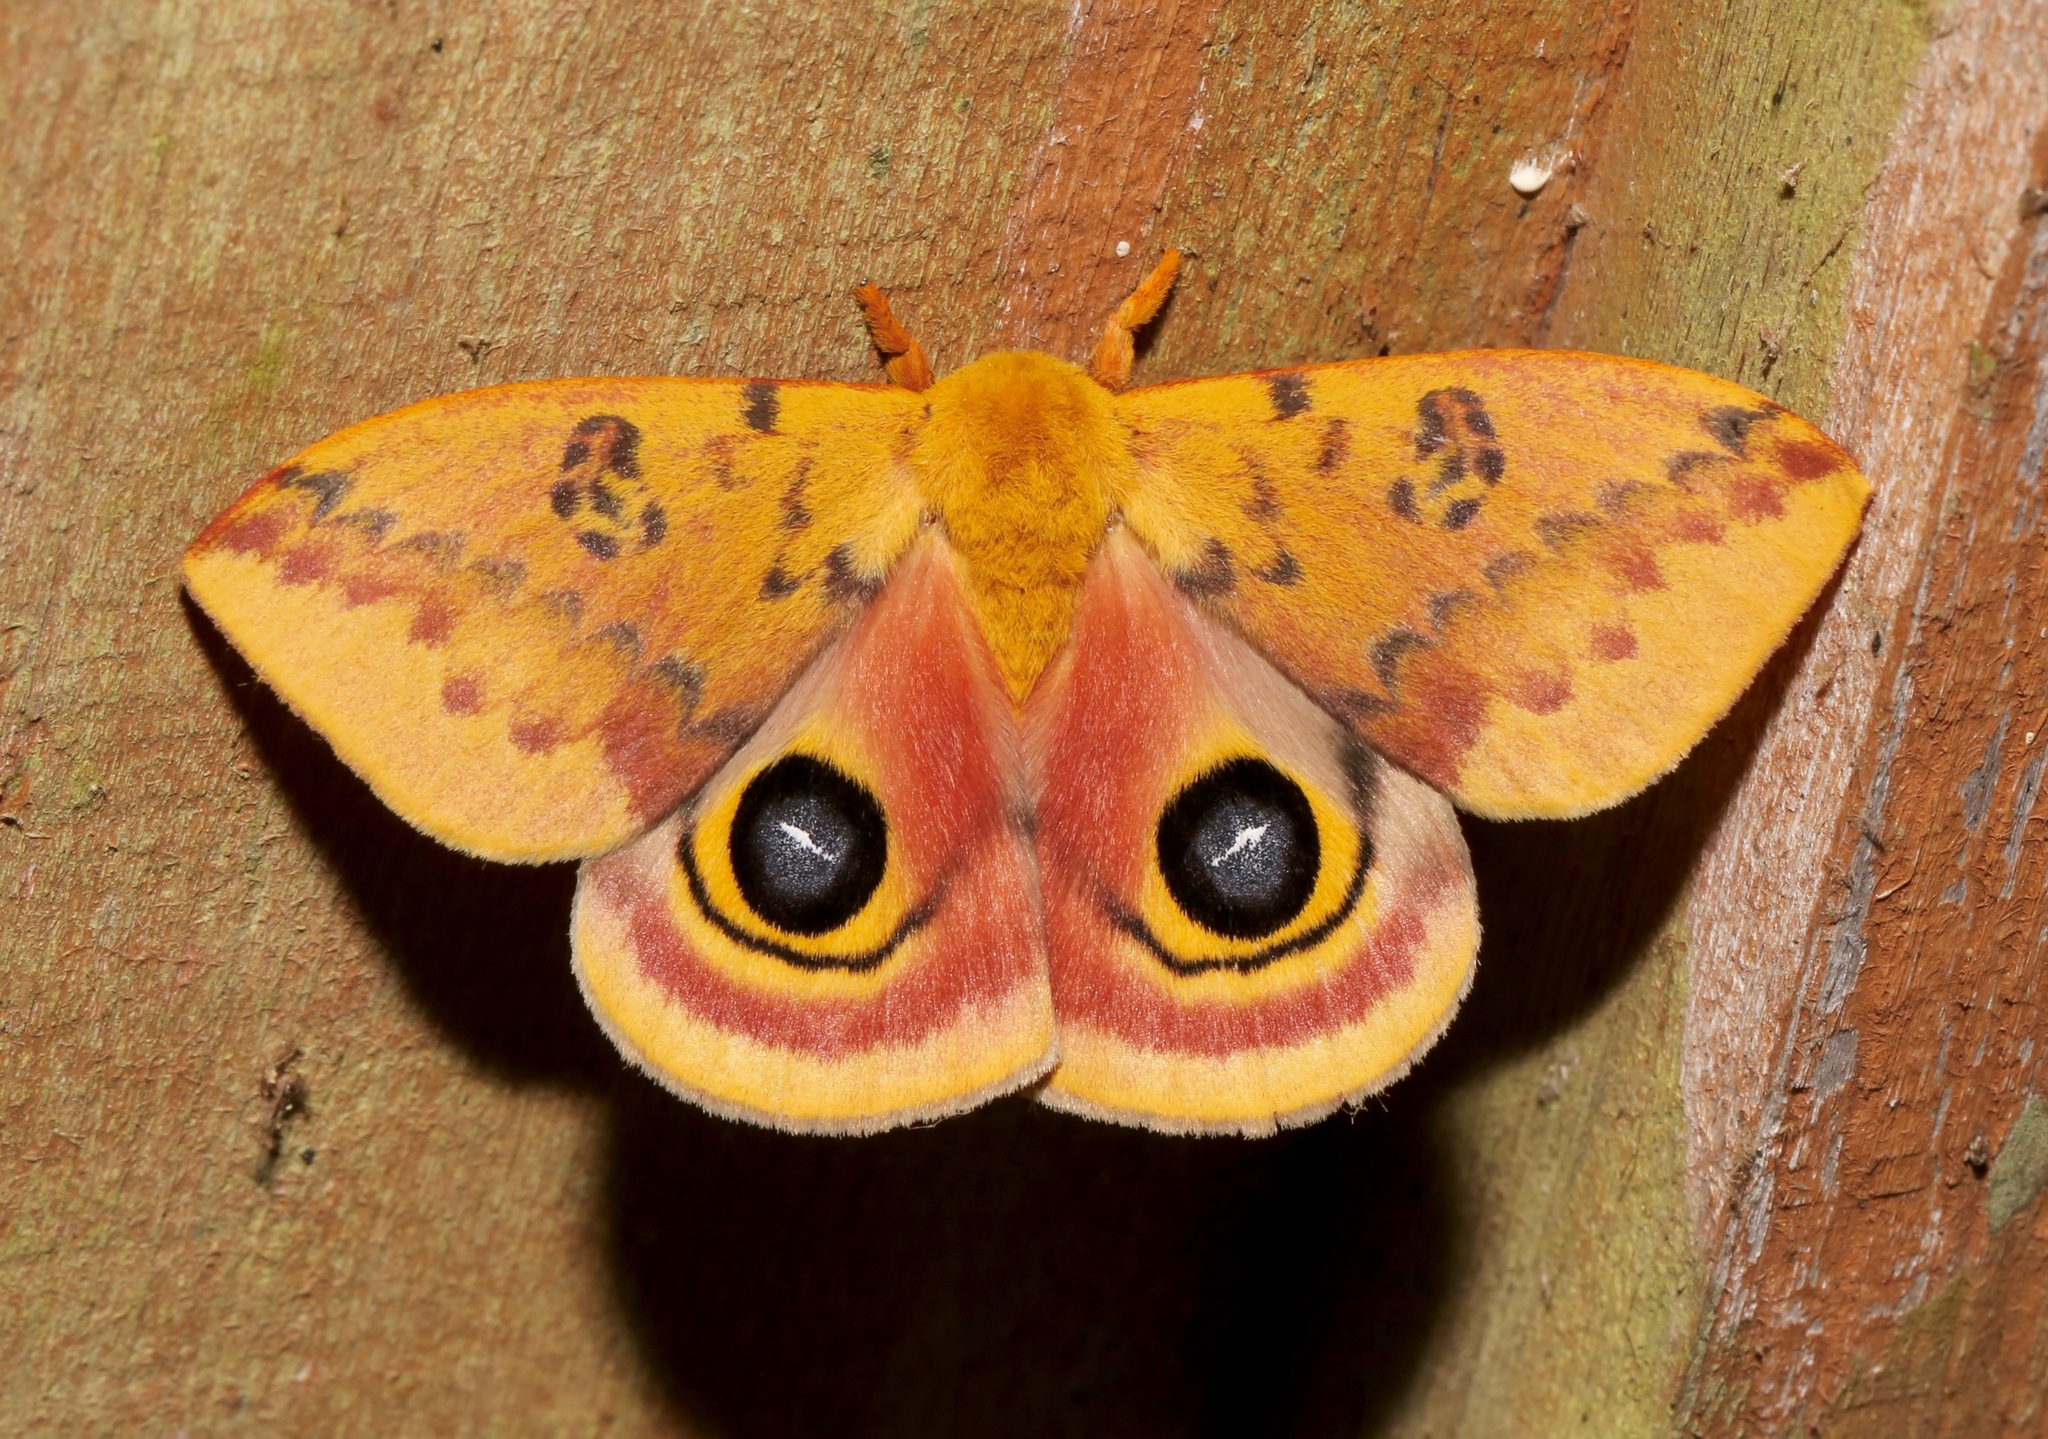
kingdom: Animalia
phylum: Arthropoda
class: Insecta
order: Lepidoptera
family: Saturniidae
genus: Automeris
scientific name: Automeris io
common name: Io moth
